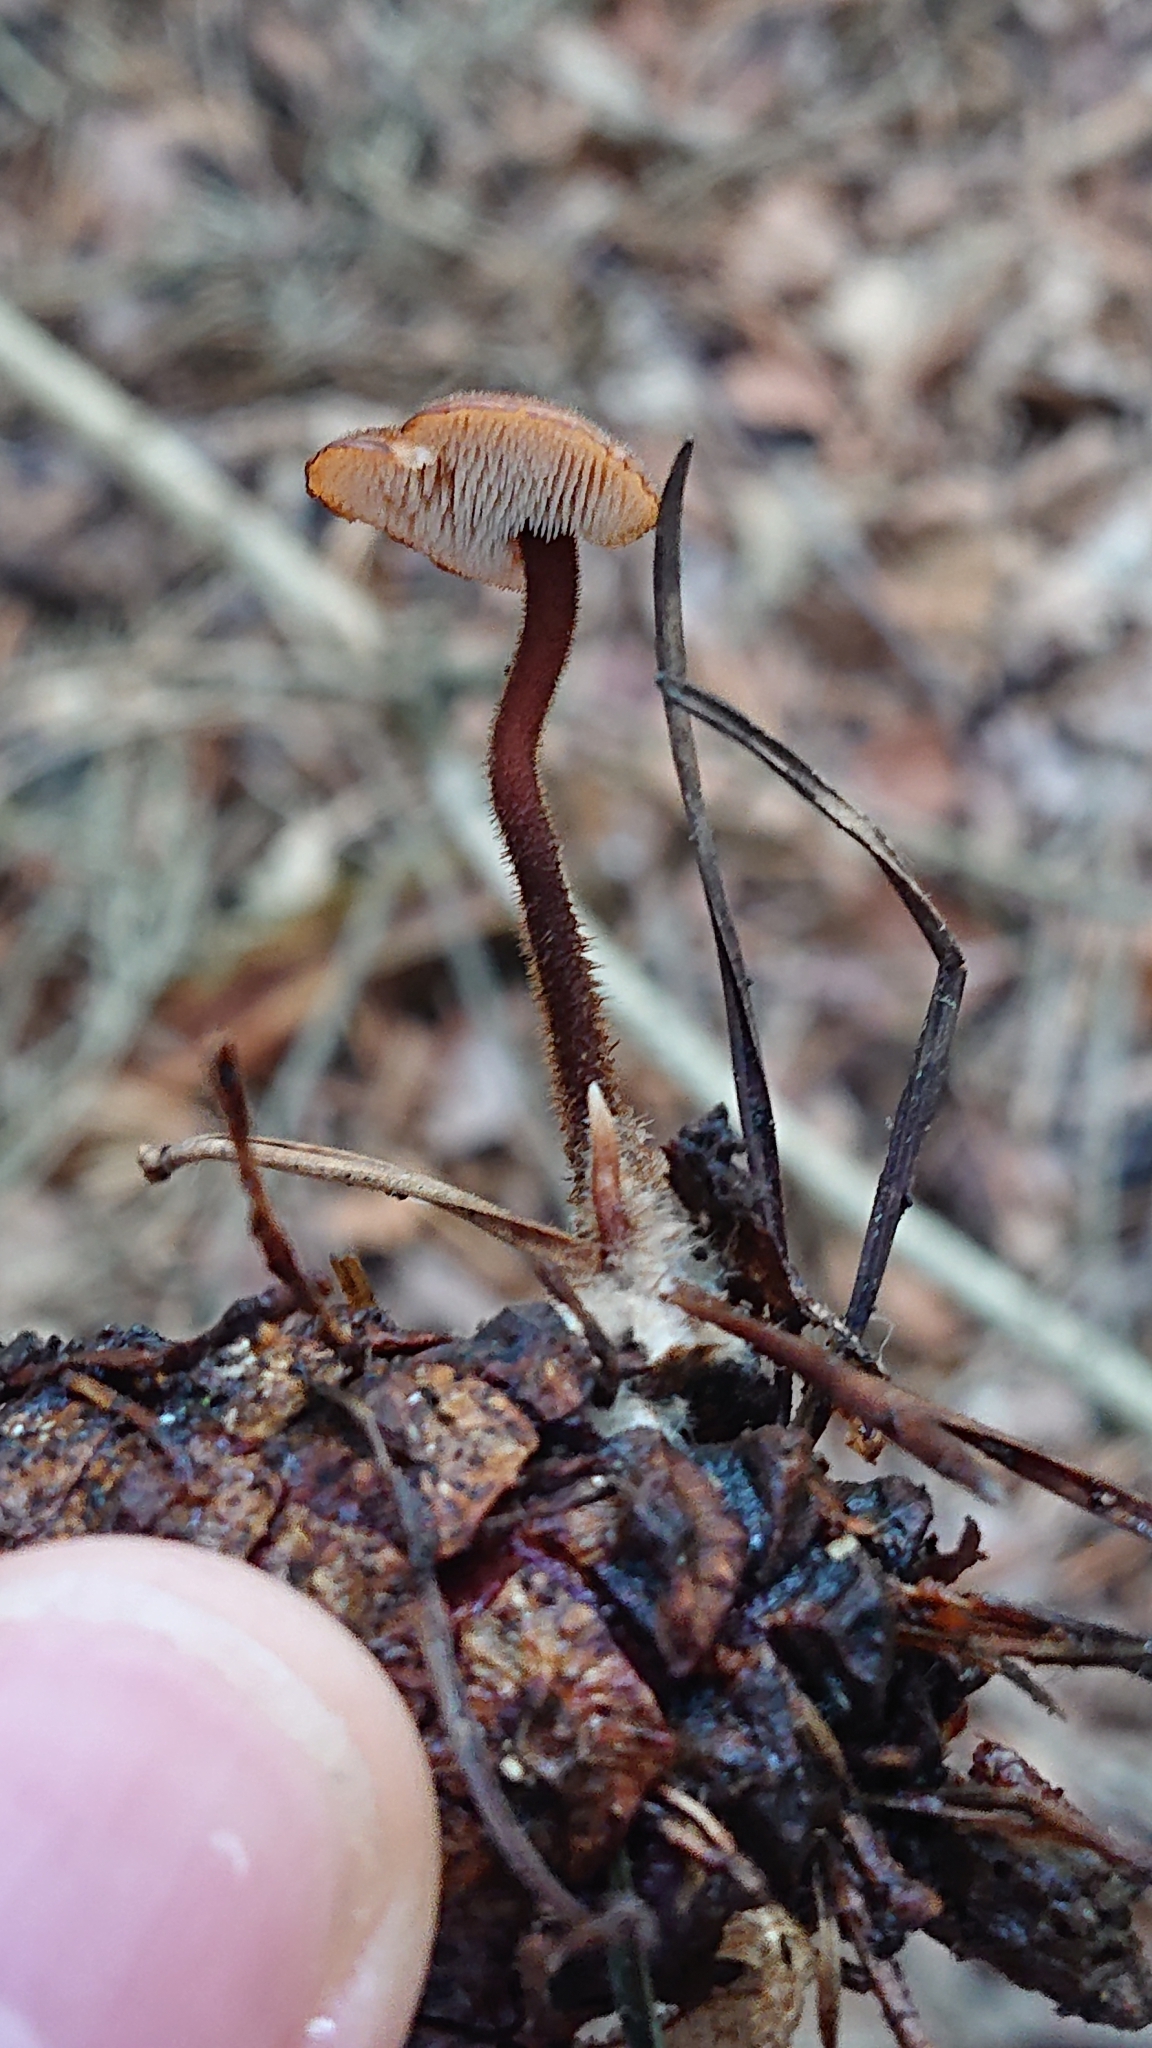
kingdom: Fungi
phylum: Basidiomycota
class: Agaricomycetes
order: Russulales
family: Auriscalpiaceae
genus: Auriscalpium
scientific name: Auriscalpium vulgare
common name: Earpick fungus
